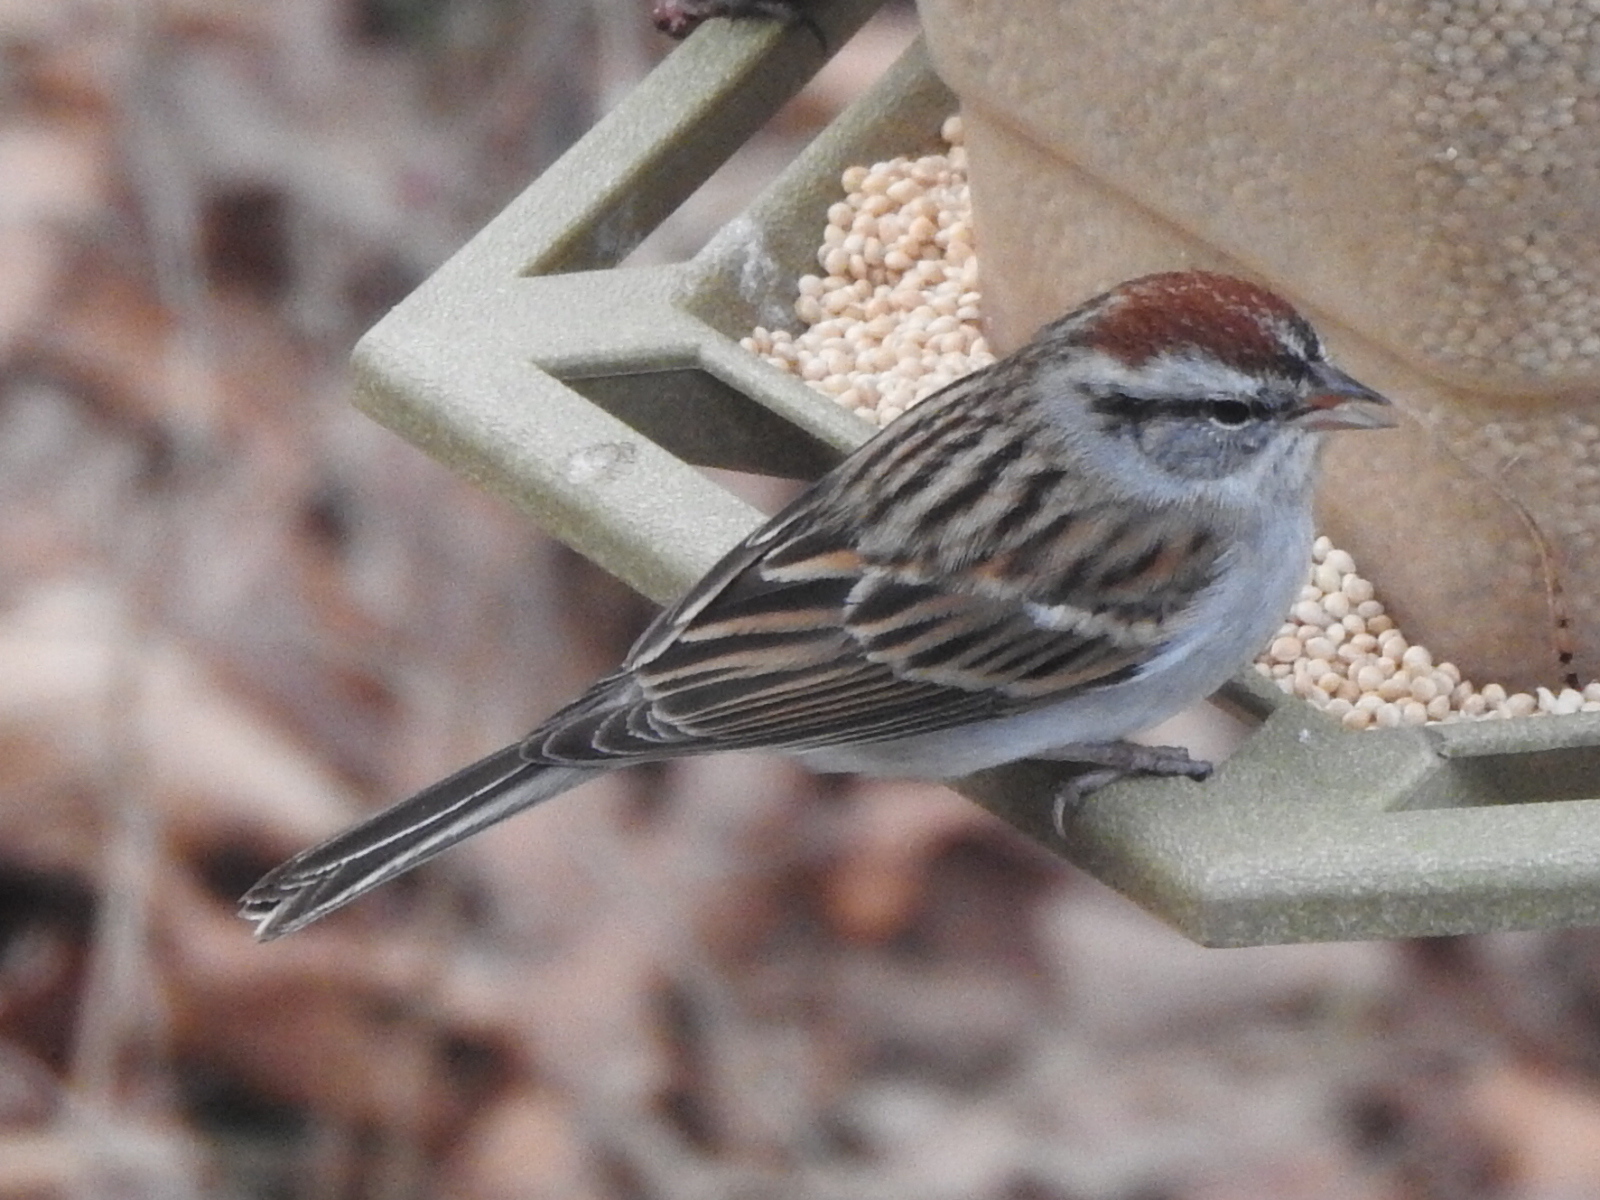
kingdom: Animalia
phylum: Chordata
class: Aves
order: Passeriformes
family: Passerellidae
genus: Spizella
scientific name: Spizella passerina
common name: Chipping sparrow
